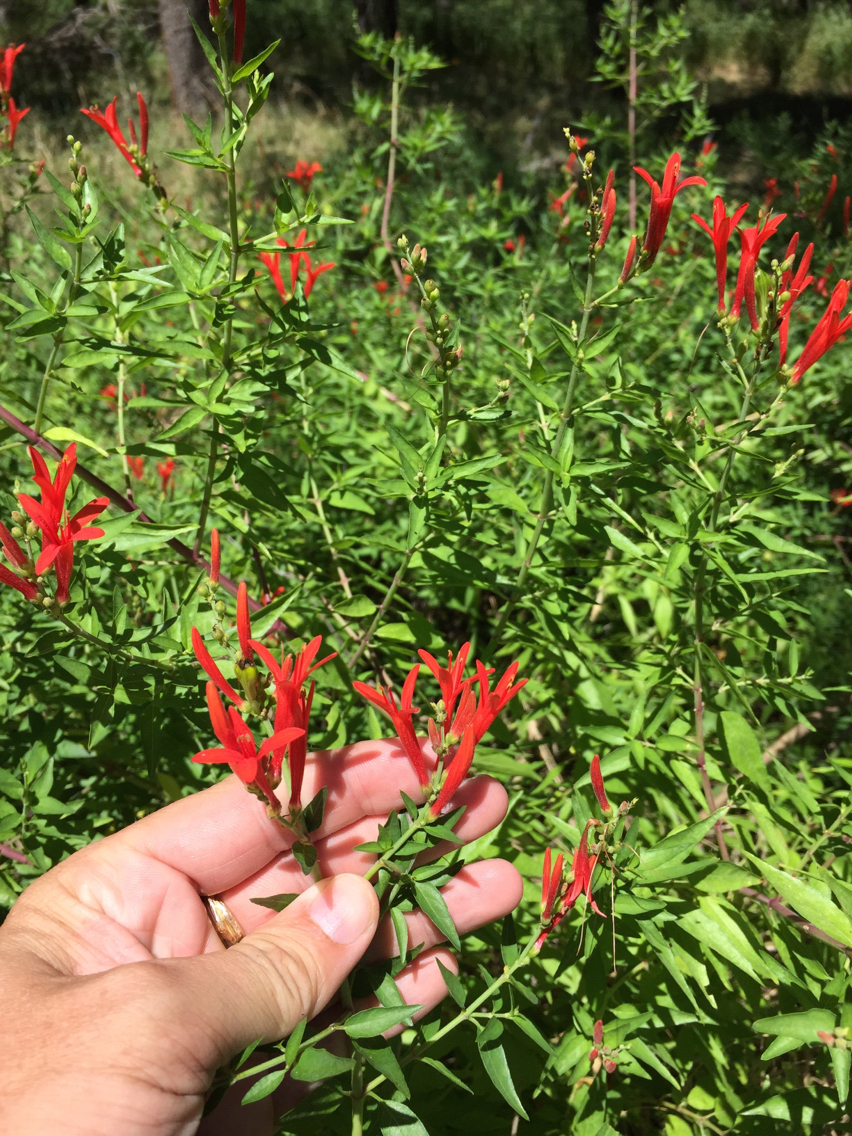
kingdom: Plantae
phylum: Tracheophyta
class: Magnoliopsida
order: Lamiales
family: Acanthaceae
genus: Anisacanthus
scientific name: Anisacanthus quadrifidus
